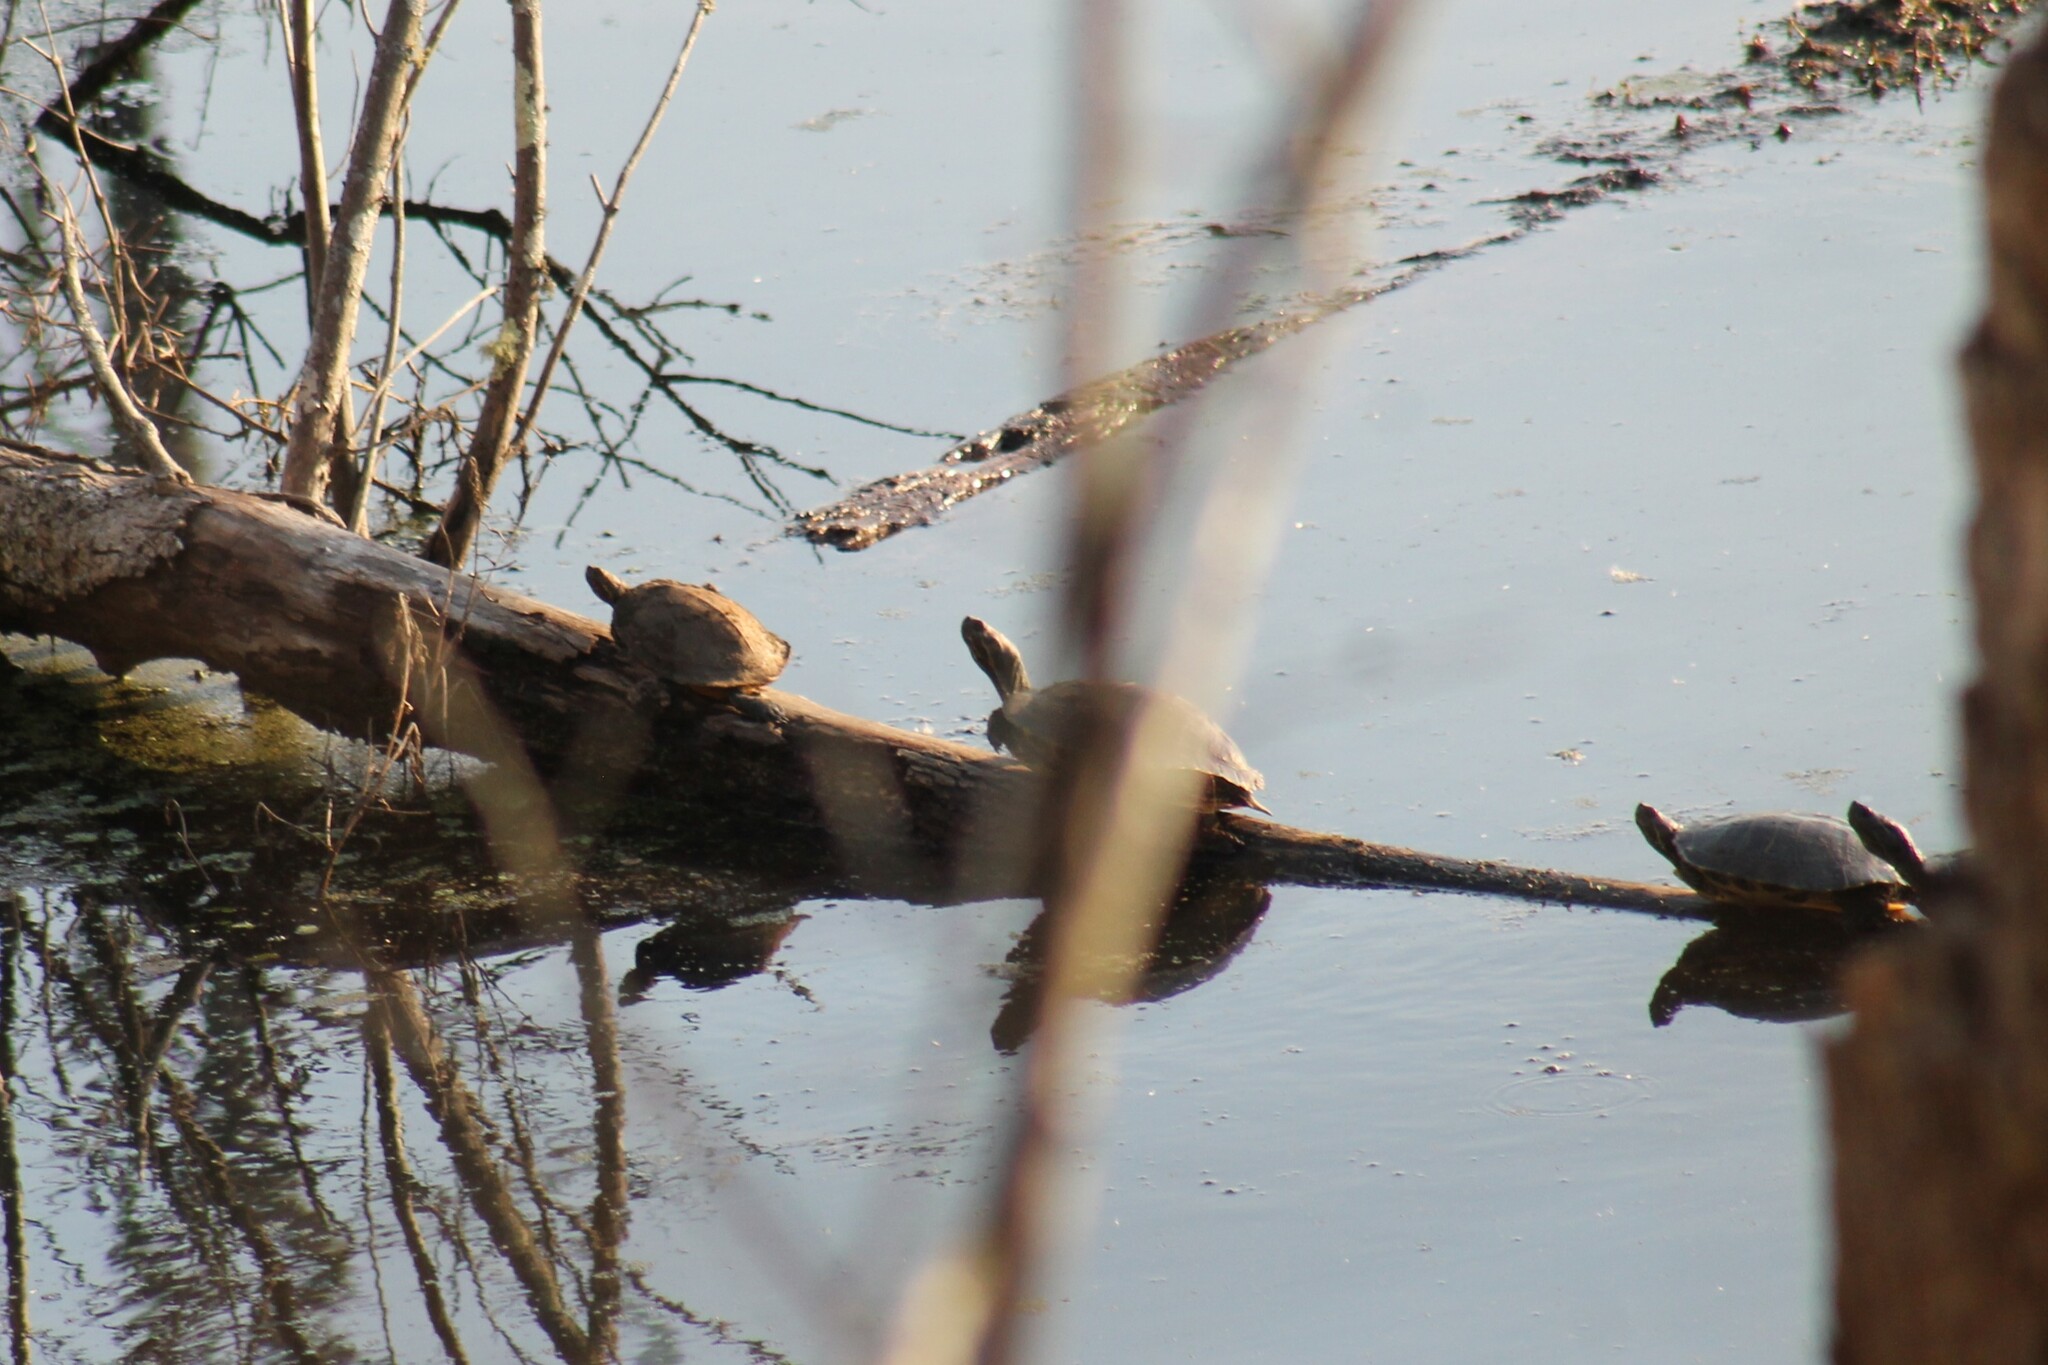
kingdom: Animalia
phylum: Chordata
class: Testudines
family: Emydidae
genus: Trachemys
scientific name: Trachemys scripta
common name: Slider
